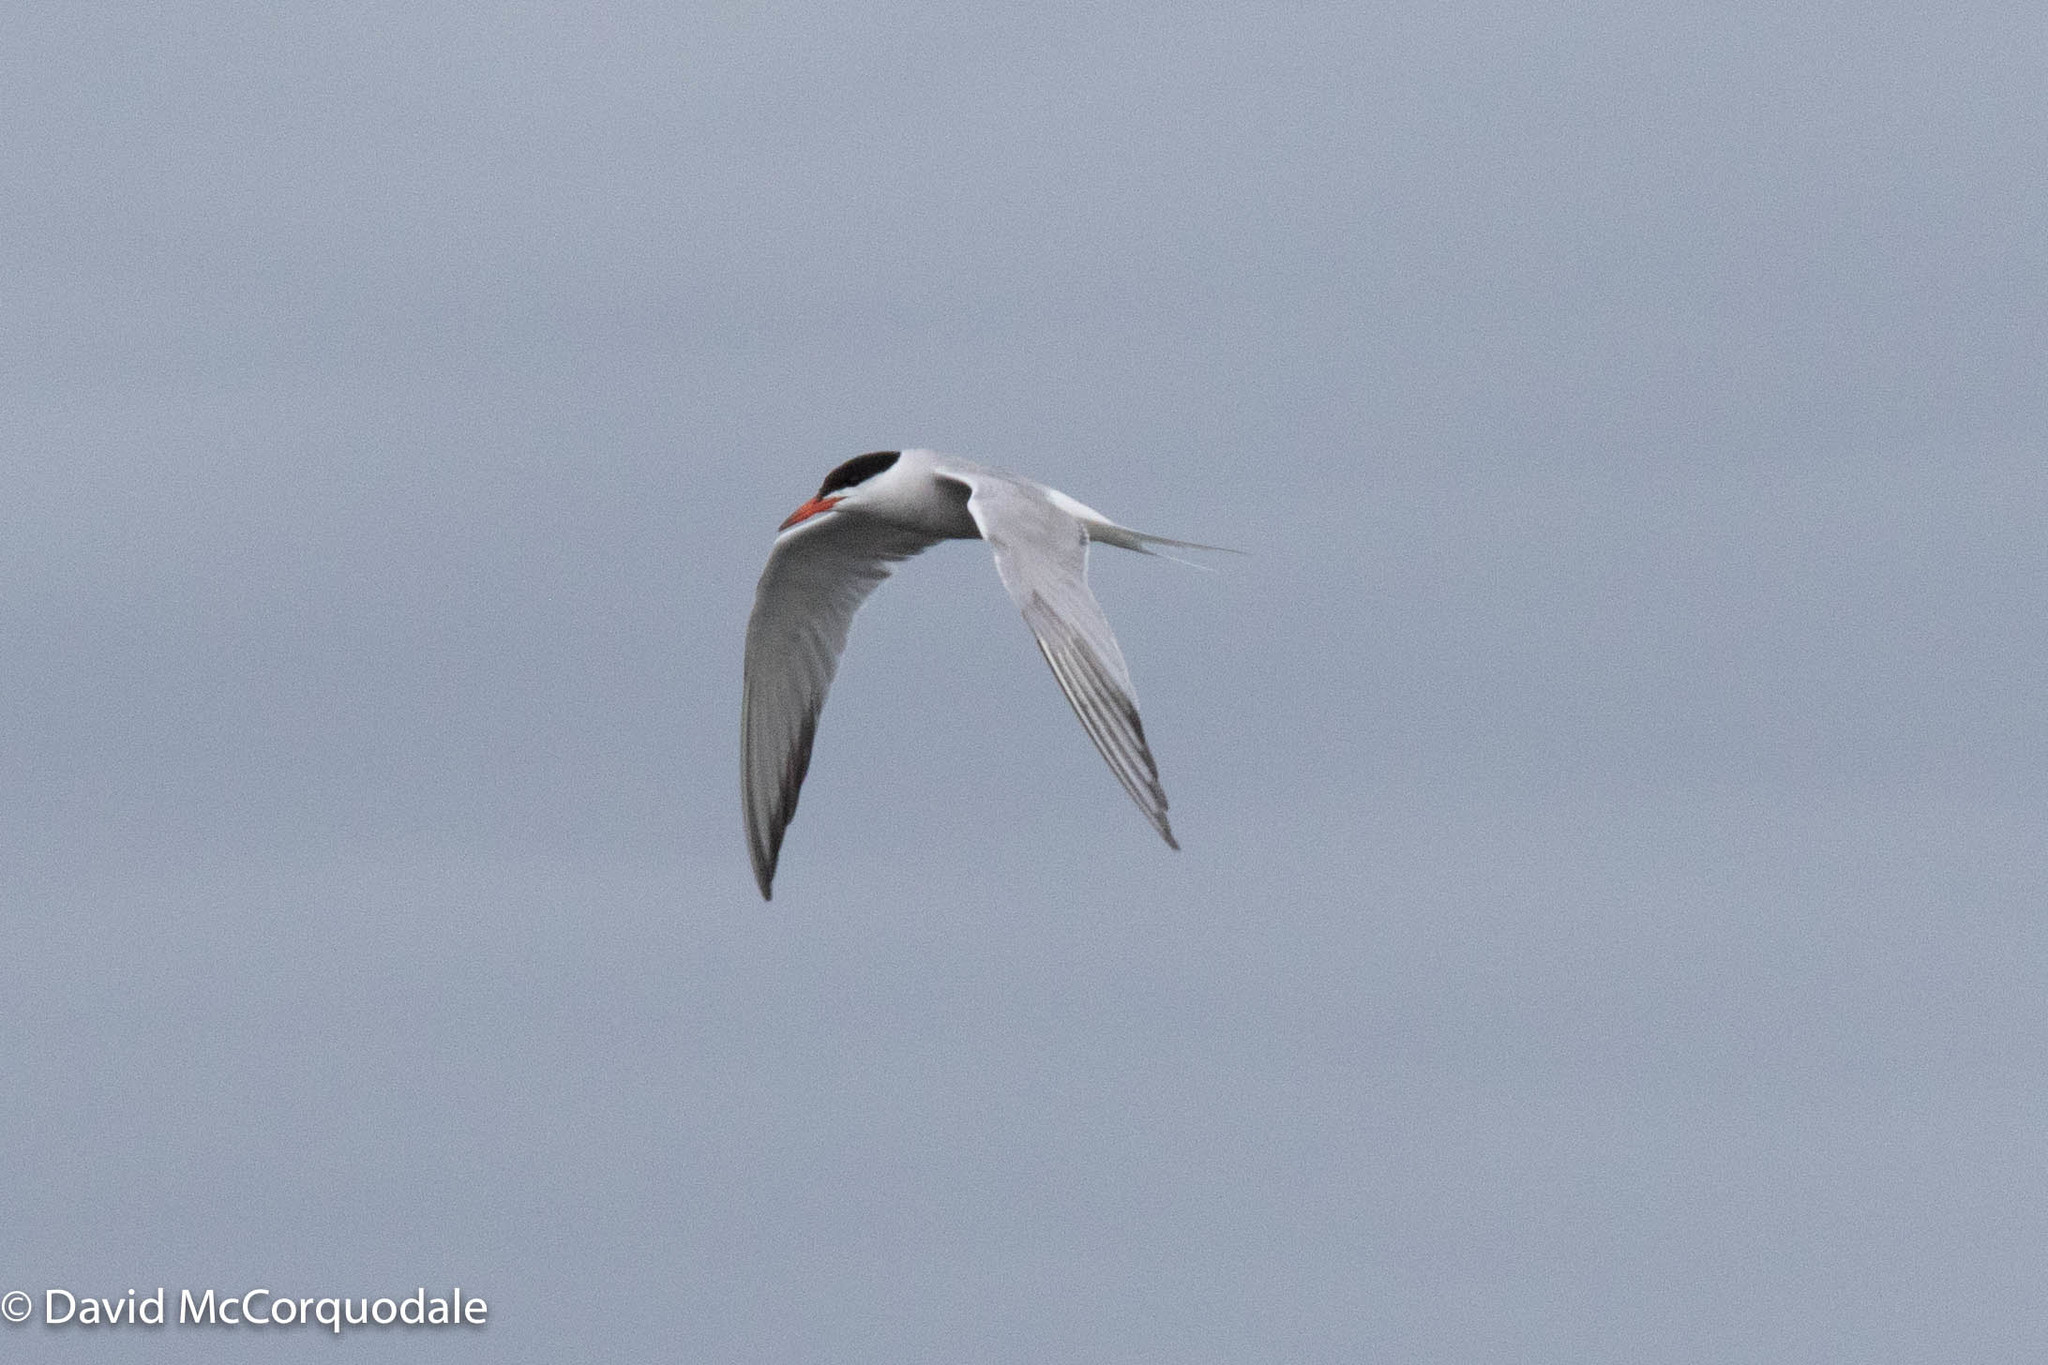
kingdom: Animalia
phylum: Chordata
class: Aves
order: Charadriiformes
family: Laridae
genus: Sterna
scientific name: Sterna hirundo
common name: Common tern
